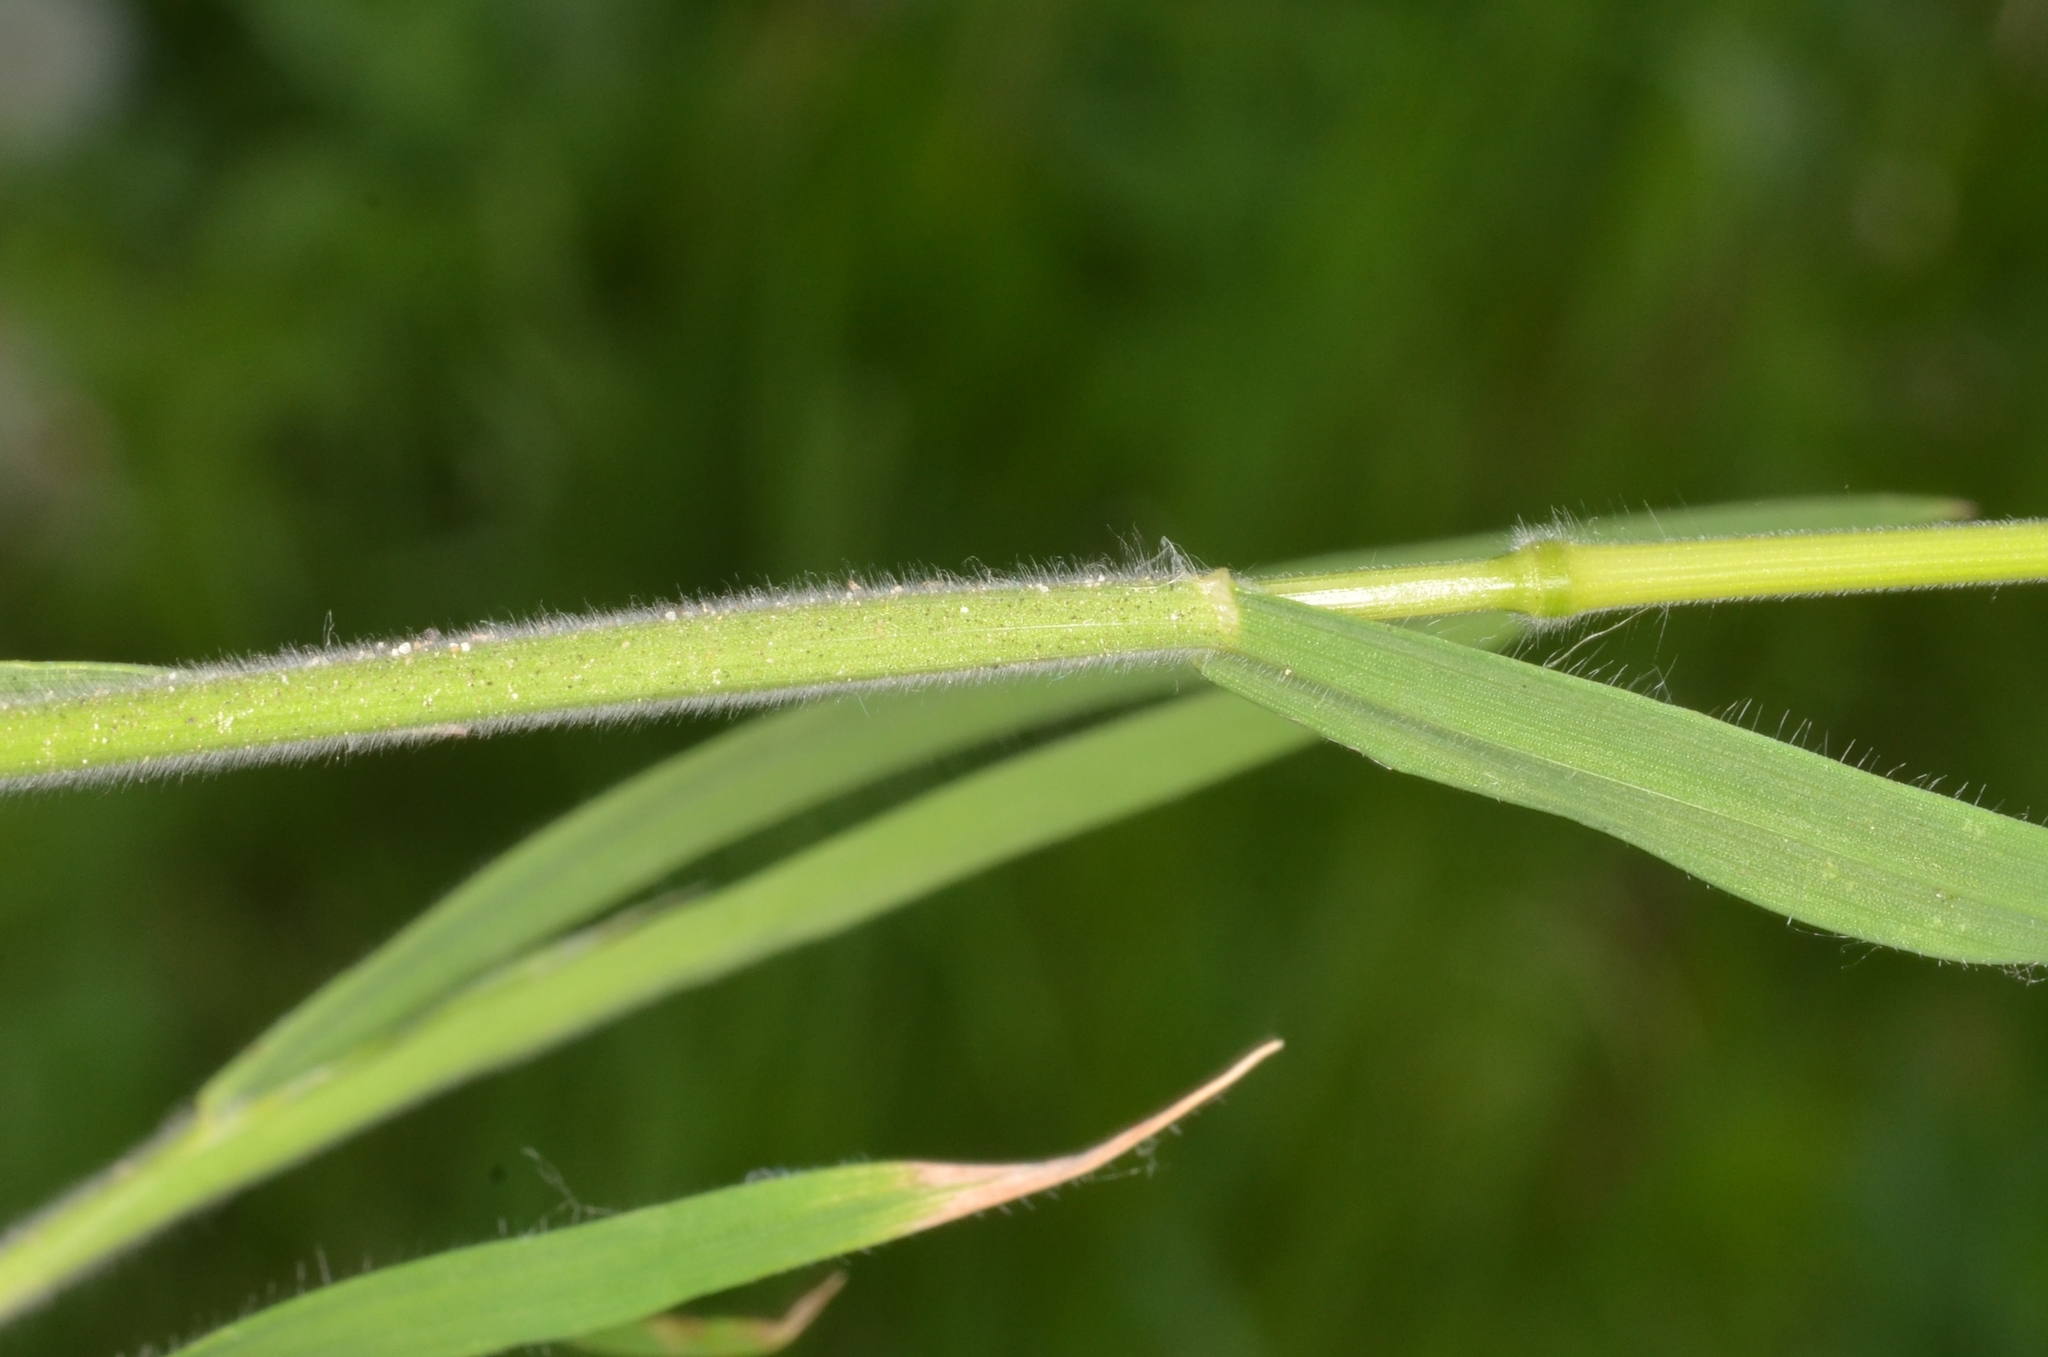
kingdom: Plantae
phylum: Tracheophyta
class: Liliopsida
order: Poales
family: Poaceae
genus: Bromus
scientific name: Bromus hordeaceus
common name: Soft brome
